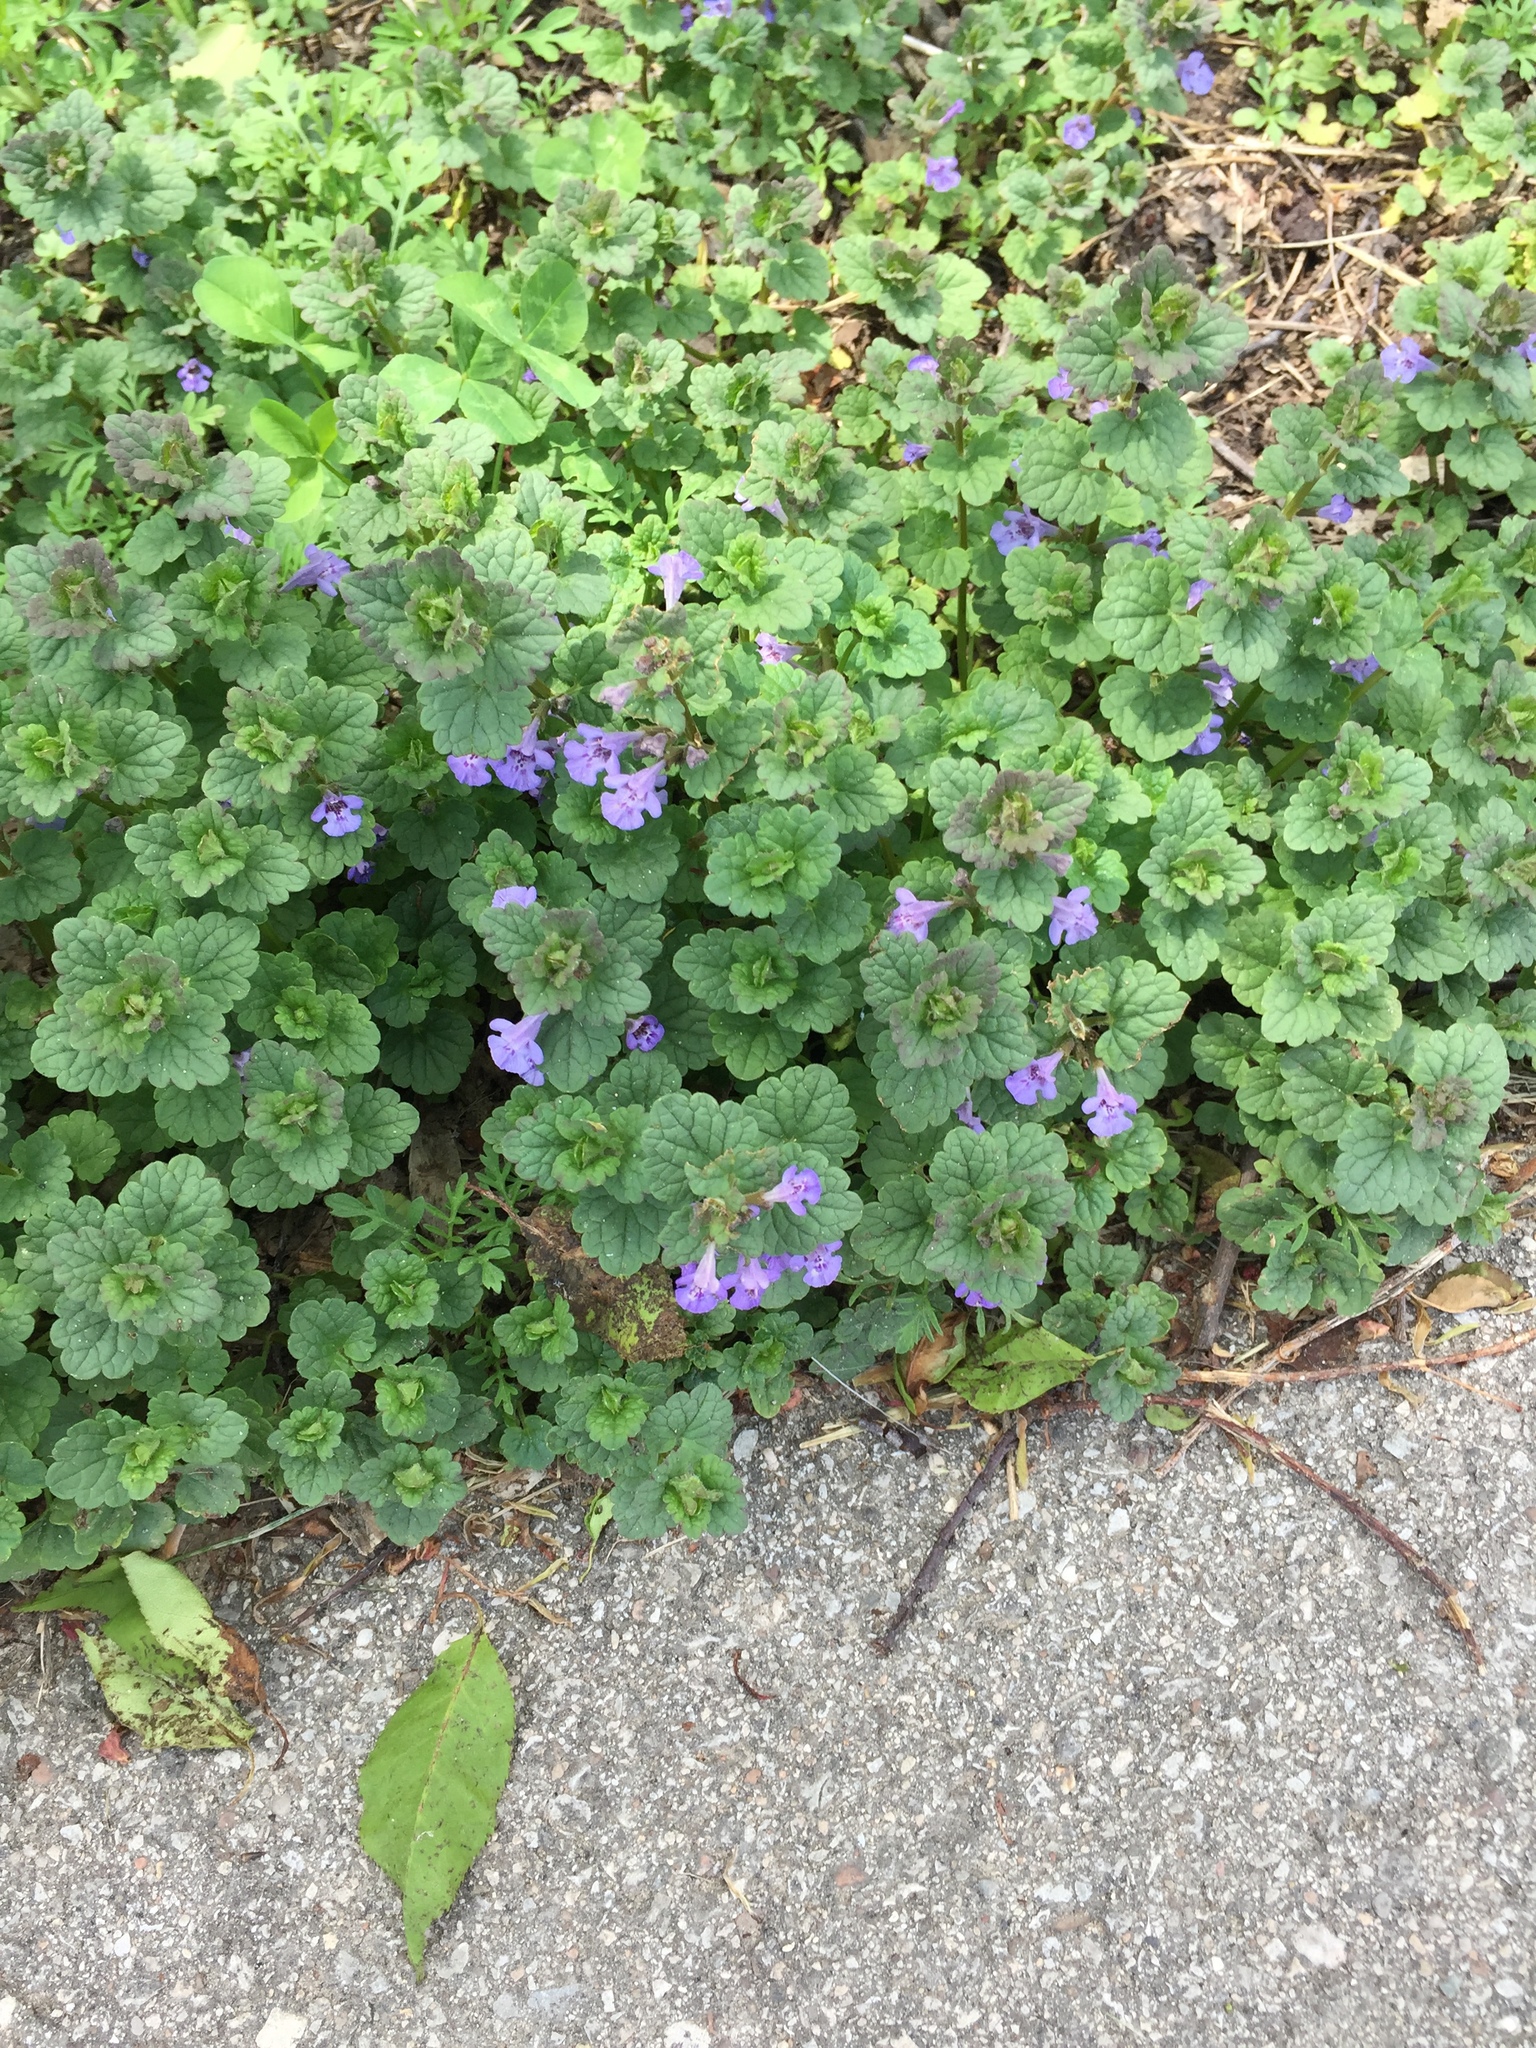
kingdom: Plantae
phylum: Tracheophyta
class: Magnoliopsida
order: Lamiales
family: Lamiaceae
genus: Glechoma
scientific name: Glechoma hederacea
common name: Ground ivy
